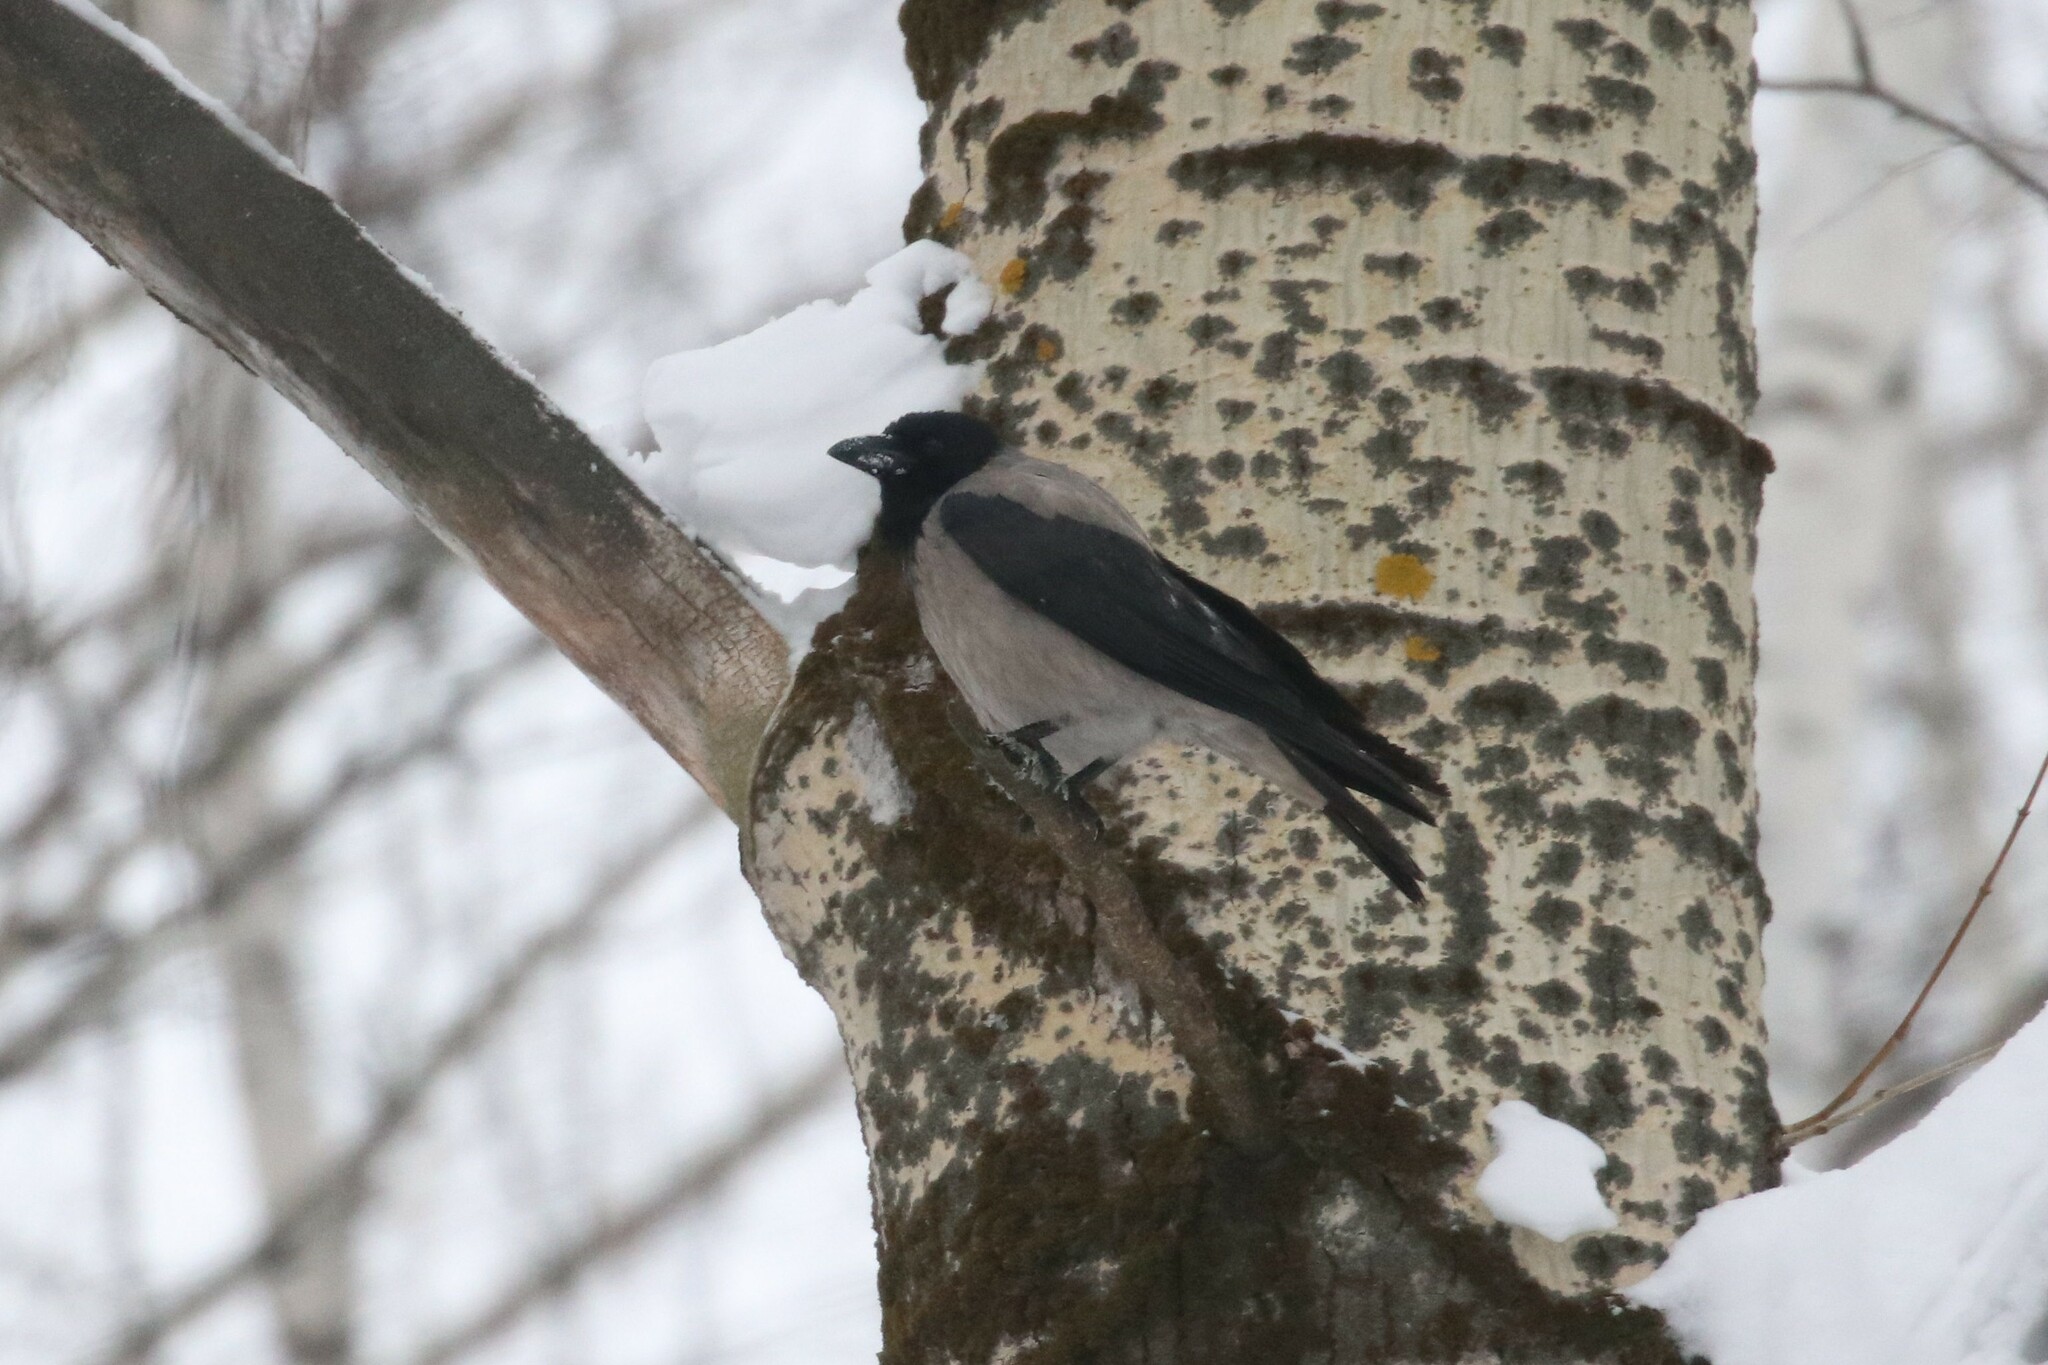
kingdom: Animalia
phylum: Chordata
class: Aves
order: Passeriformes
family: Corvidae
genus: Corvus
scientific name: Corvus cornix
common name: Hooded crow
